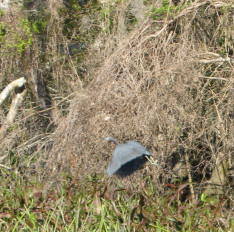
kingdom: Animalia
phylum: Chordata
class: Aves
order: Pelecaniformes
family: Ardeidae
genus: Egretta
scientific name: Egretta caerulea
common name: Little blue heron
